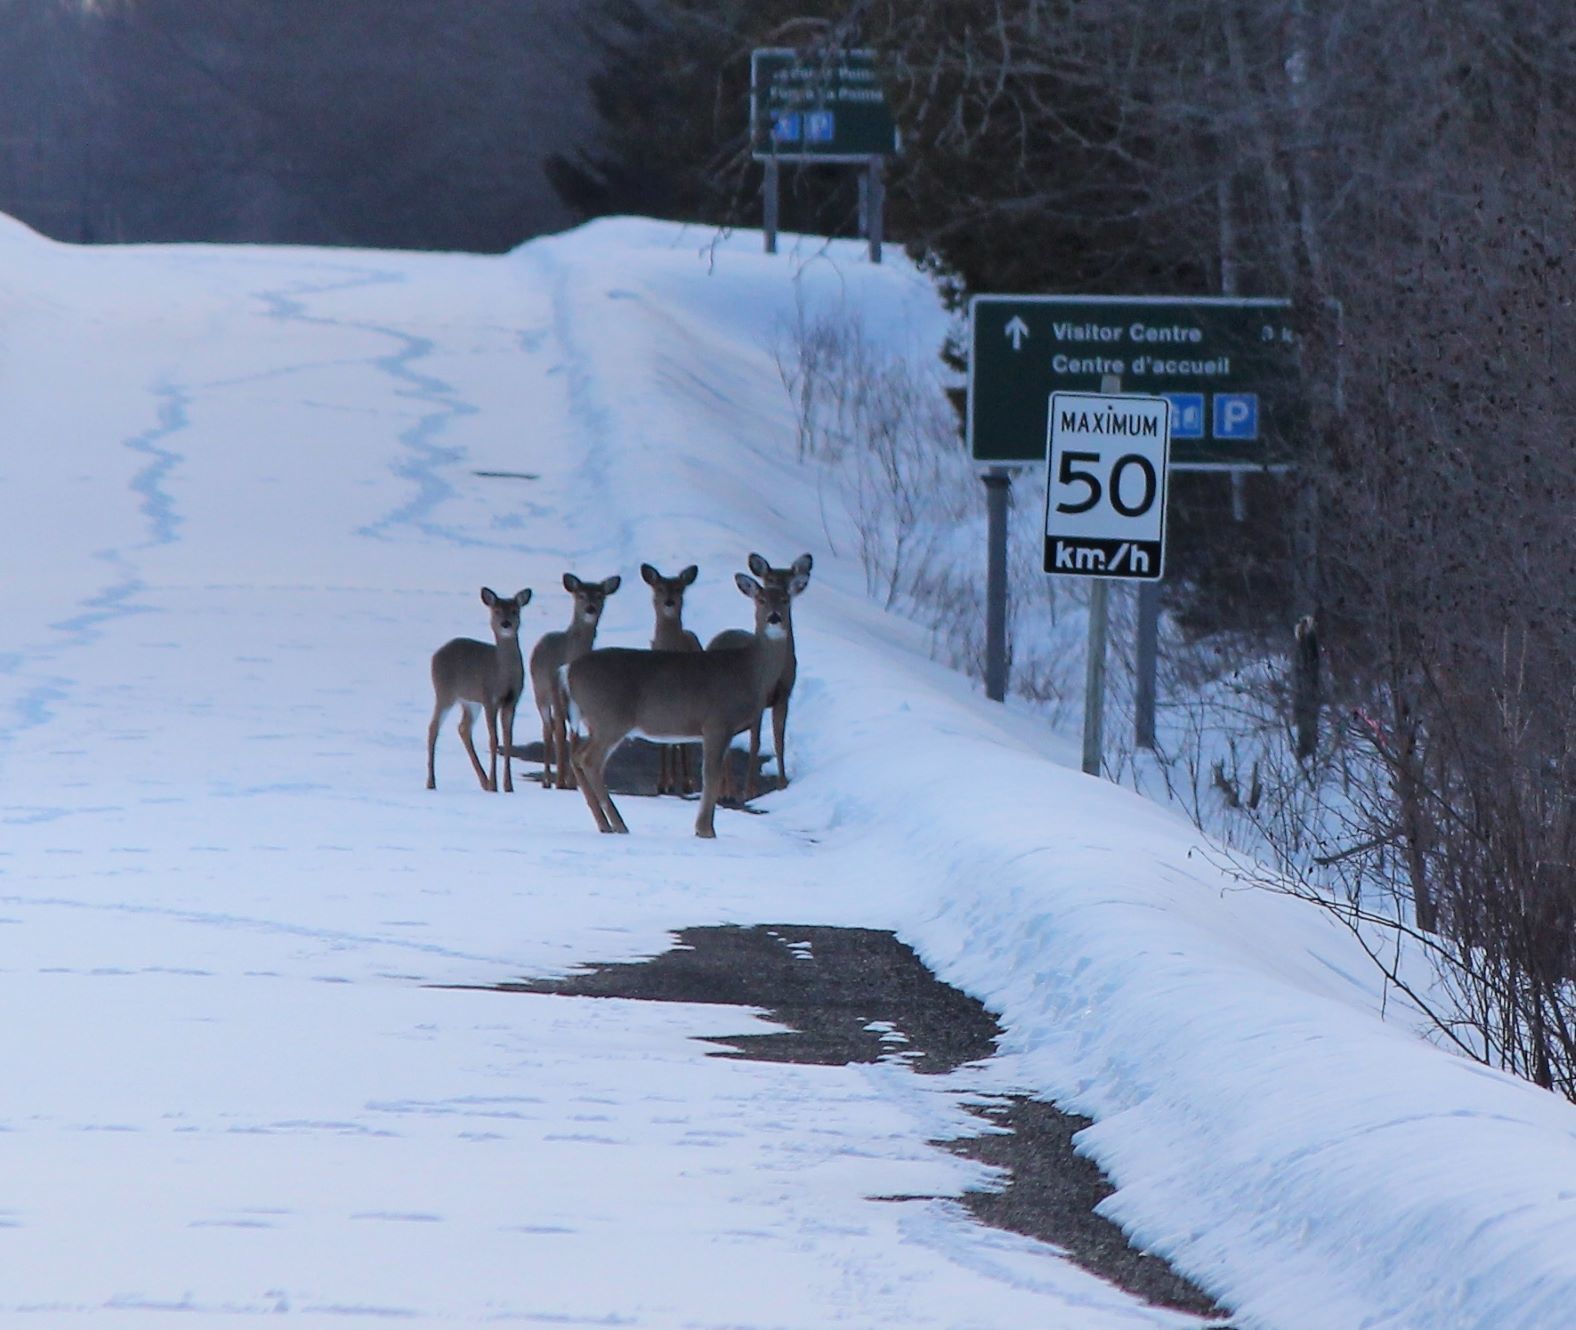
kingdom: Animalia
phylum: Chordata
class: Mammalia
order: Artiodactyla
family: Cervidae
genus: Odocoileus
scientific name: Odocoileus virginianus
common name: White-tailed deer
